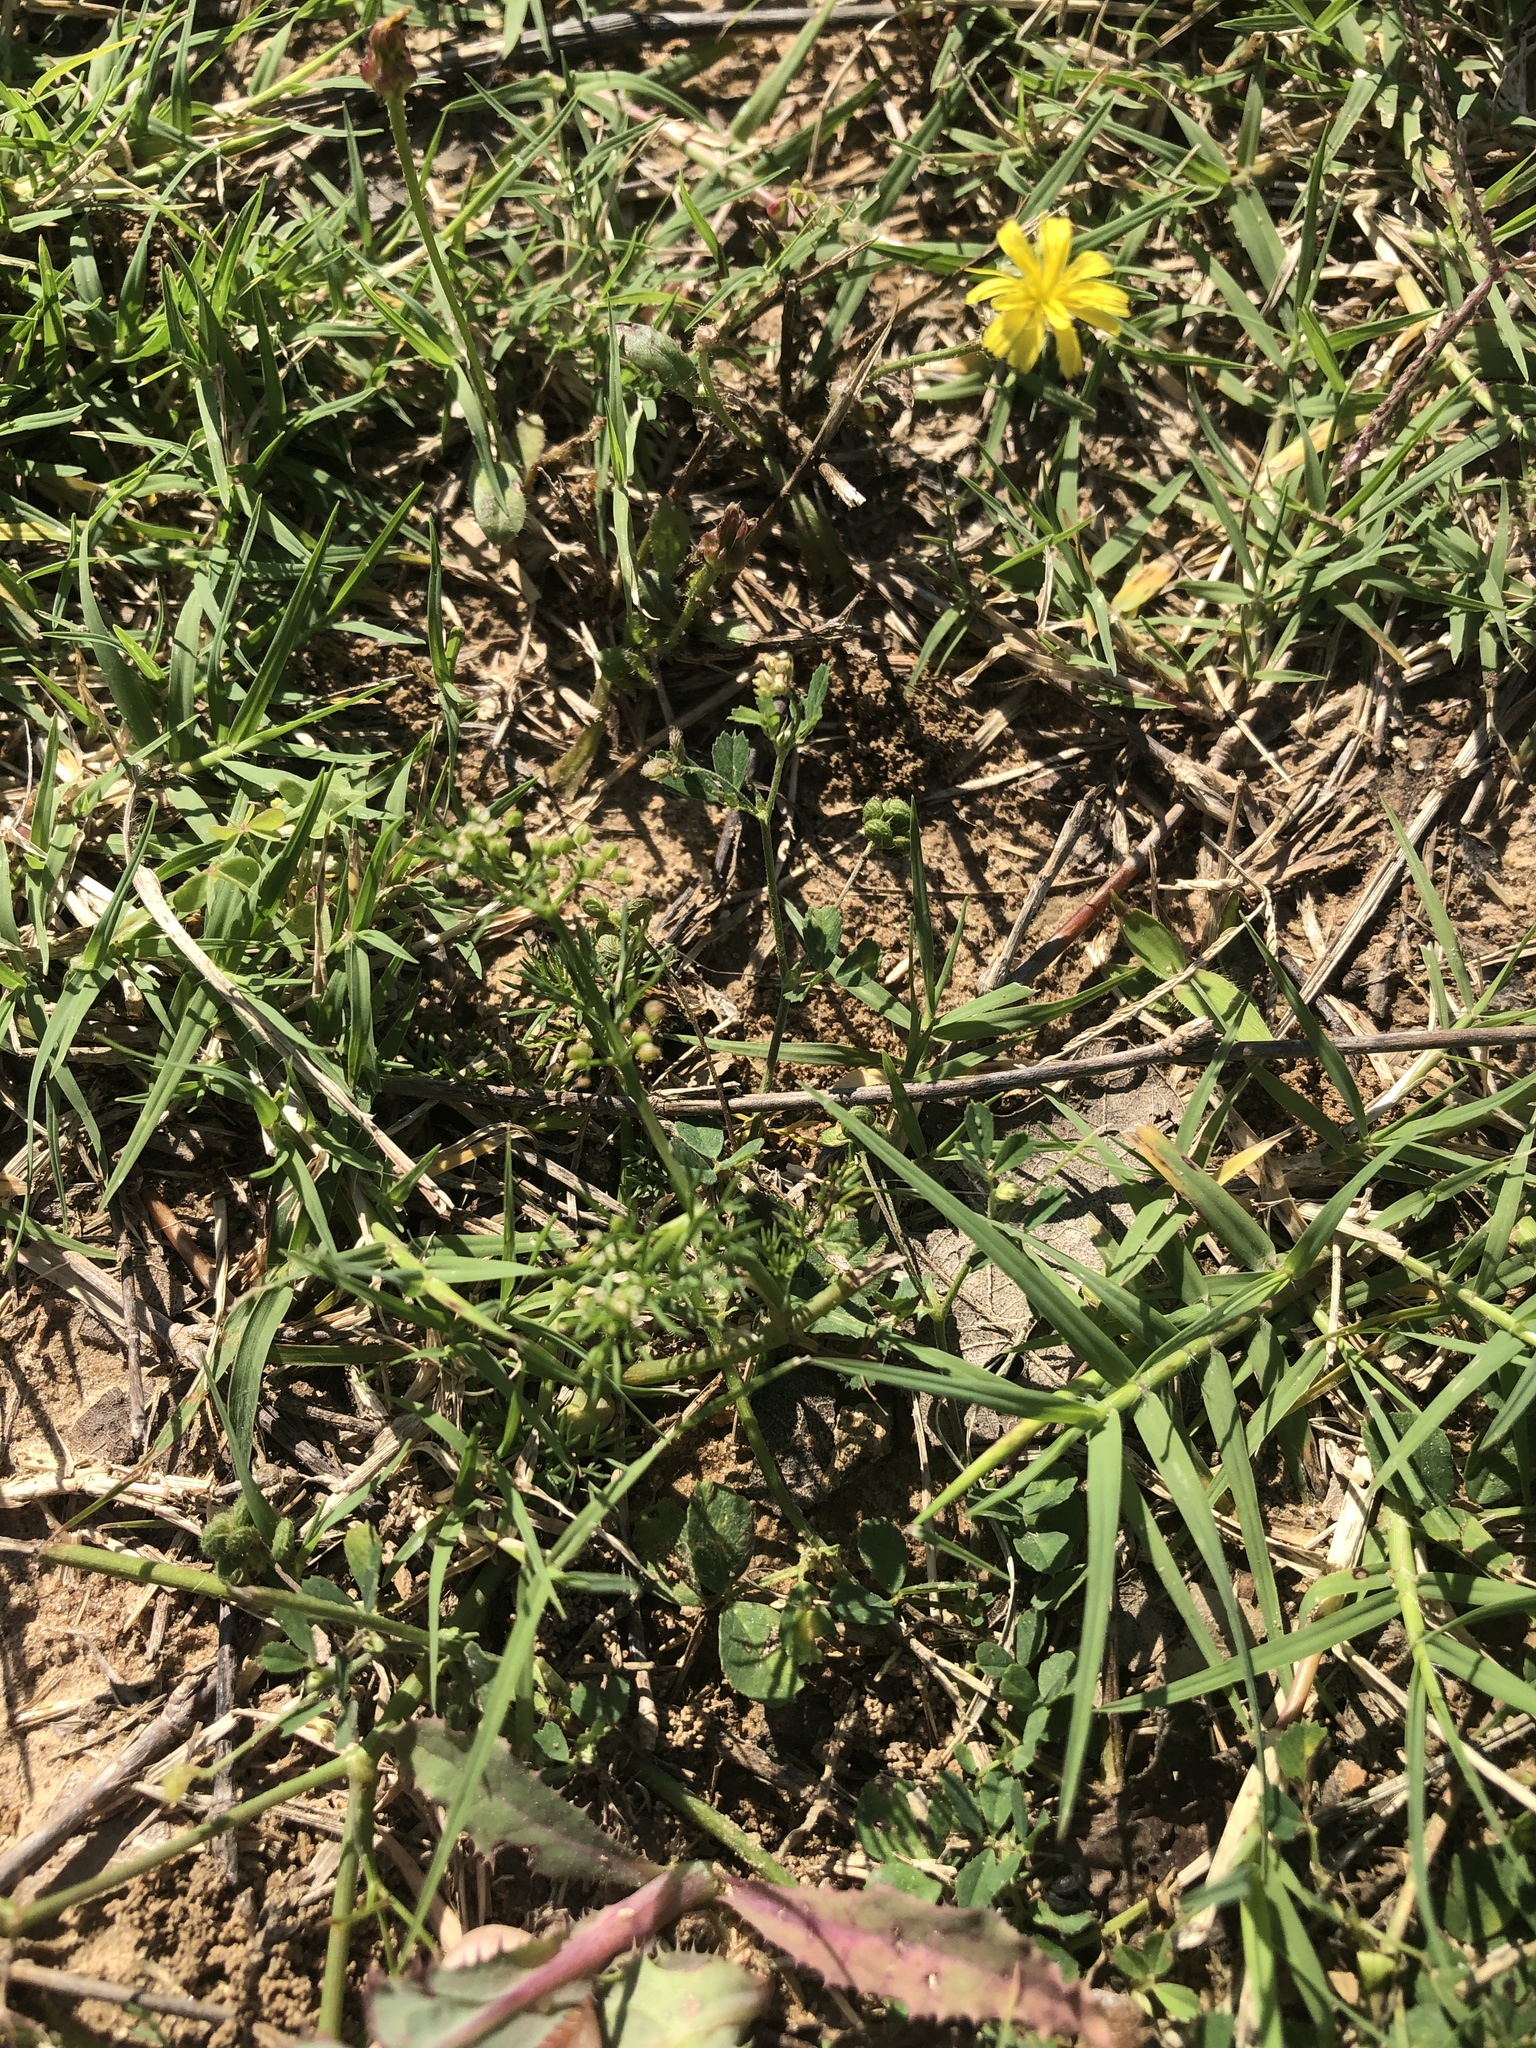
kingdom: Plantae
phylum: Tracheophyta
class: Magnoliopsida
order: Apiales
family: Apiaceae
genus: Cyclospermum
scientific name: Cyclospermum leptophyllum
